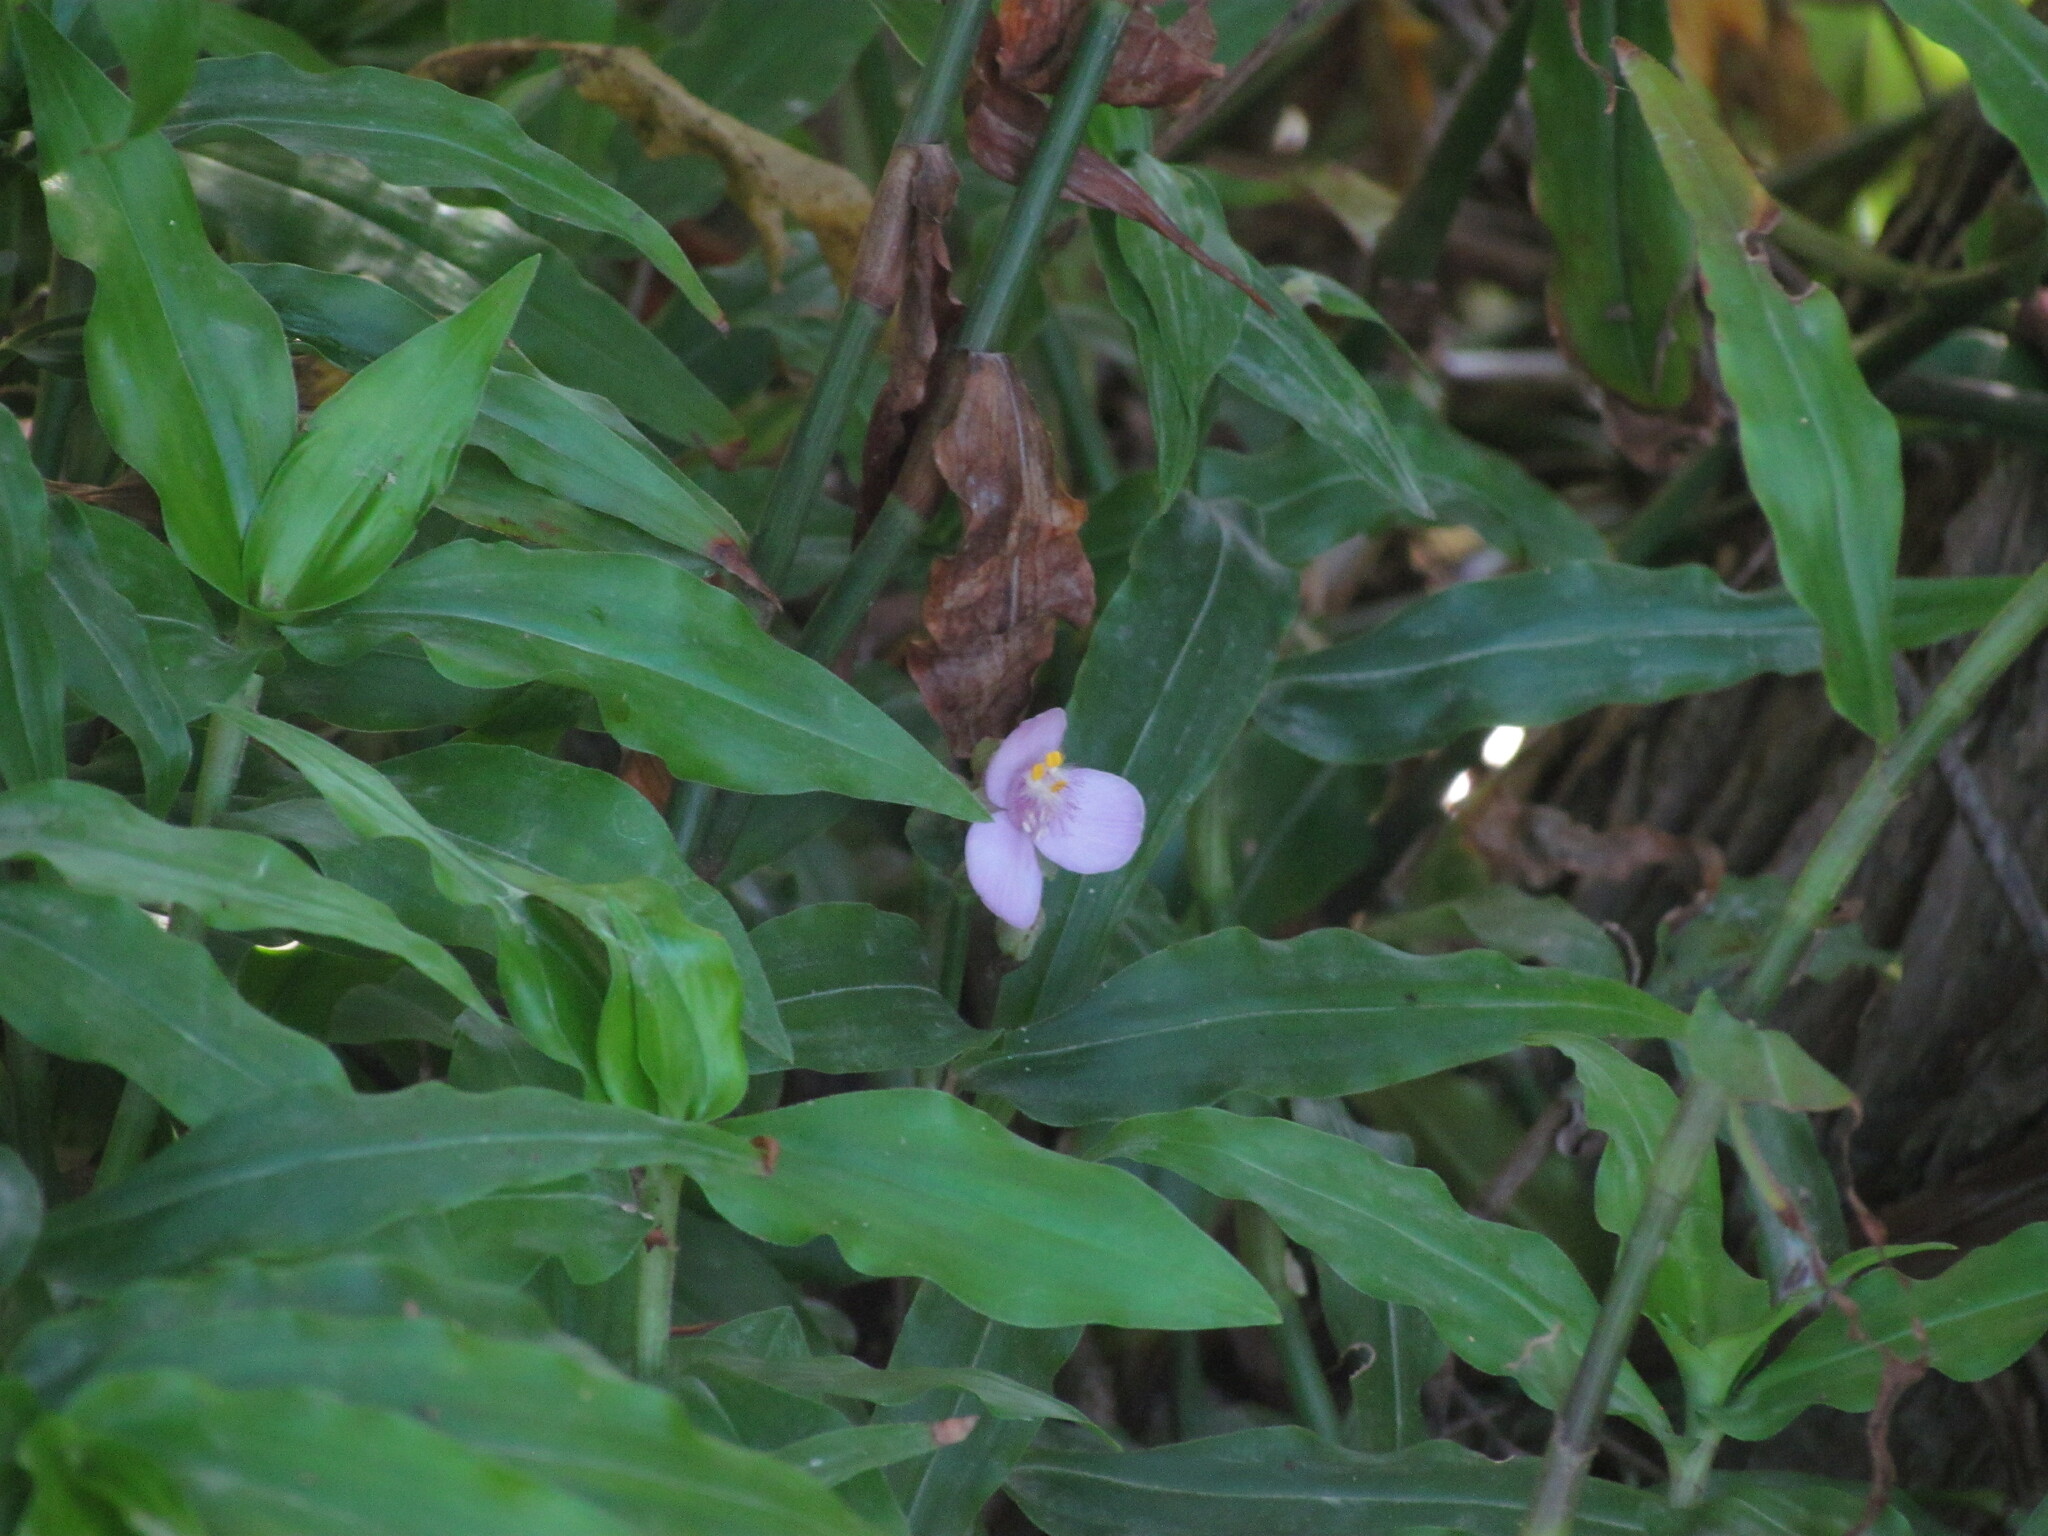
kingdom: Plantae
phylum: Tracheophyta
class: Liliopsida
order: Commelinales
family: Commelinaceae
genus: Callisia
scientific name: Callisia diuretica
